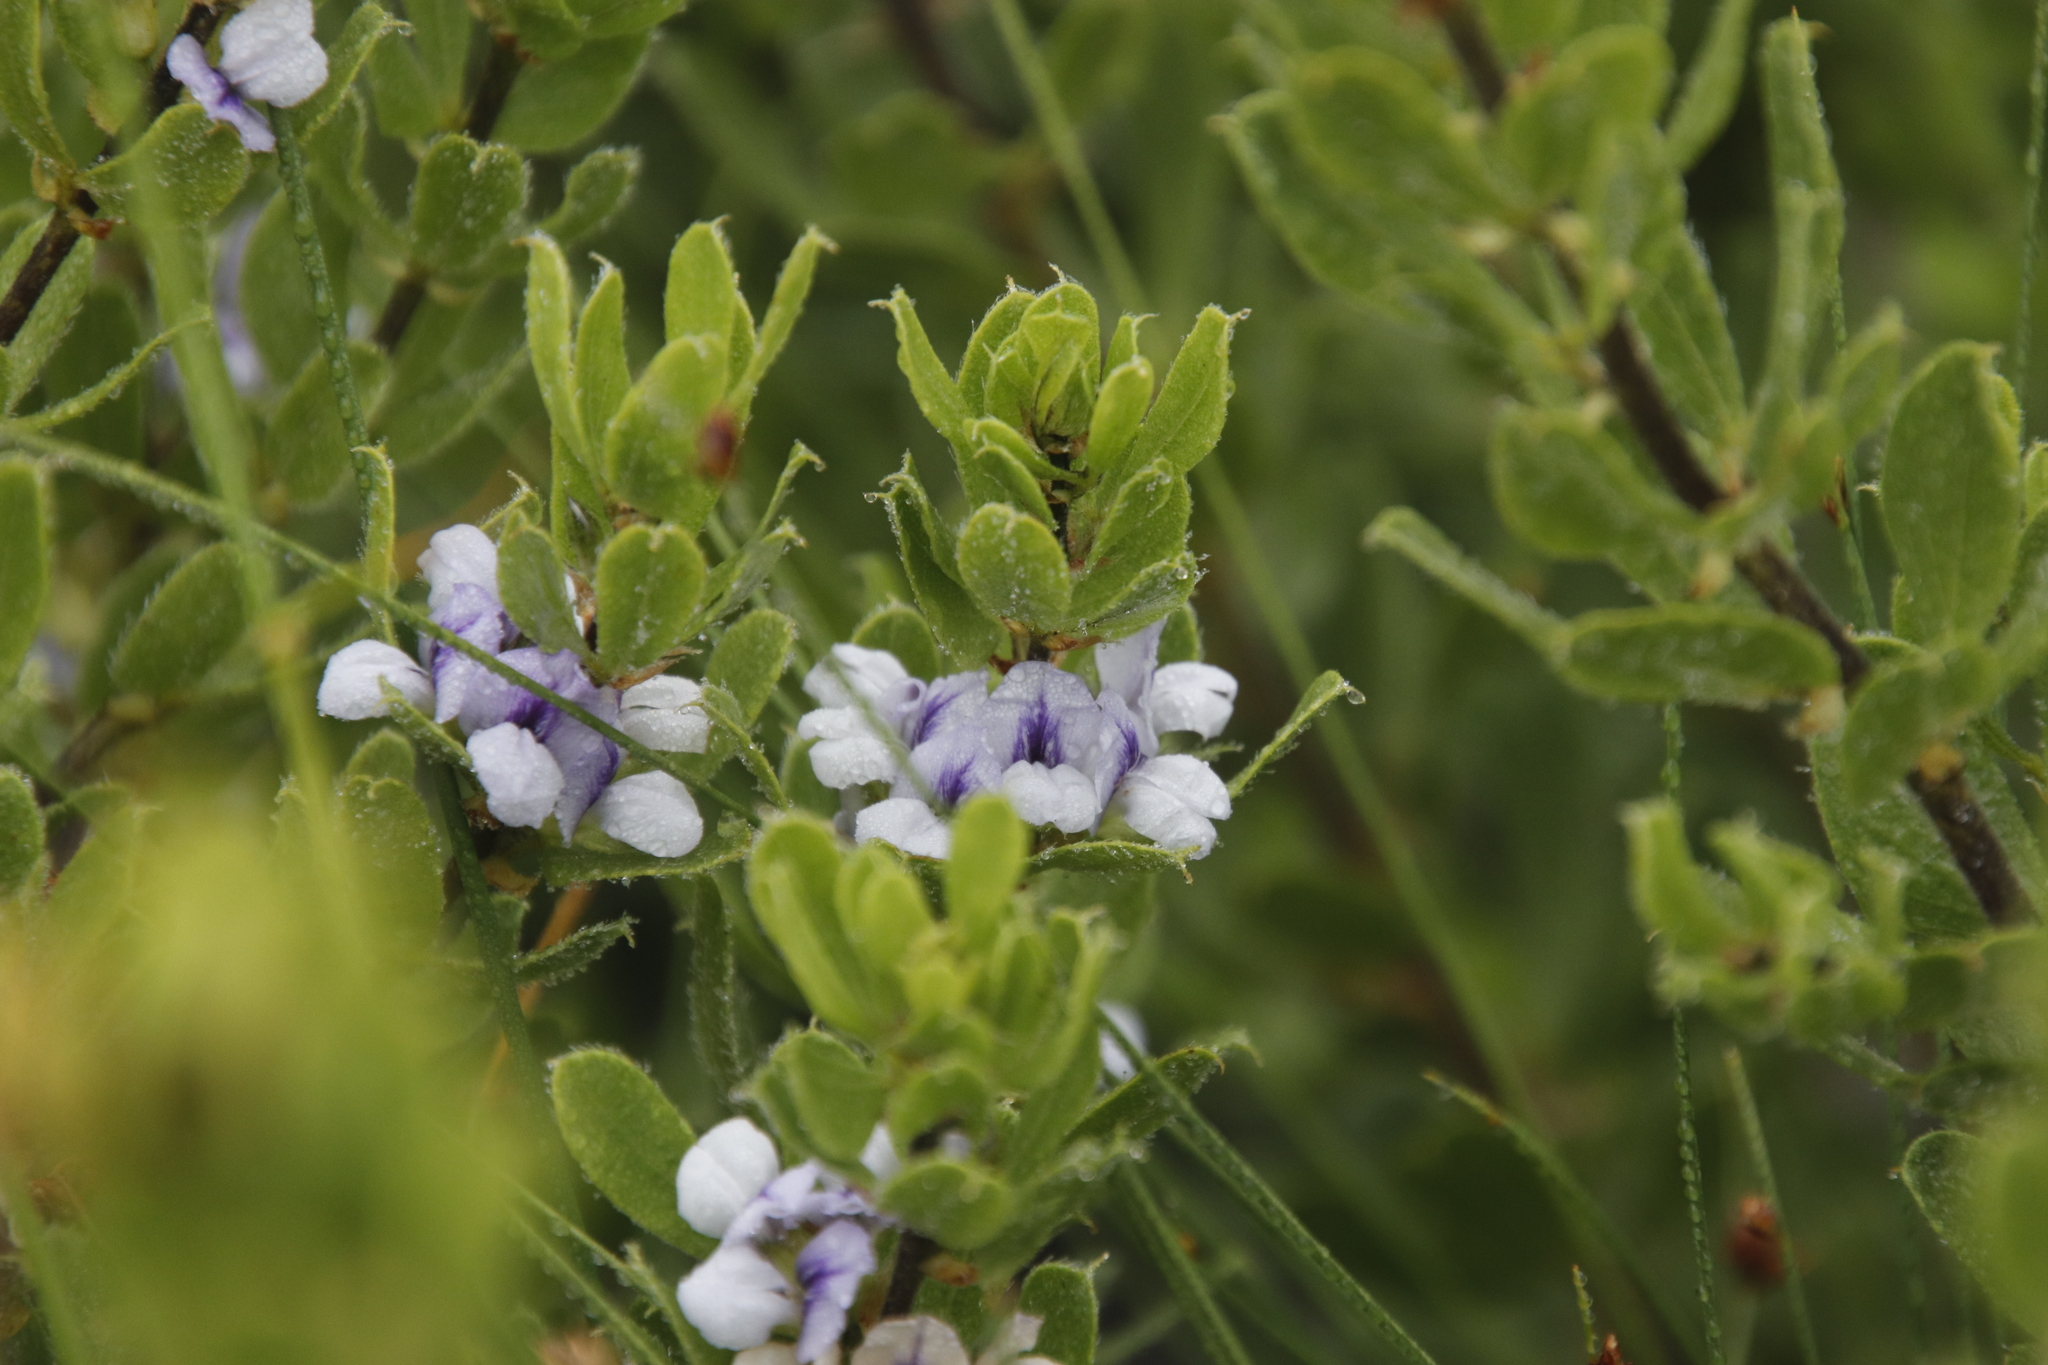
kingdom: Plantae
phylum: Tracheophyta
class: Magnoliopsida
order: Fabales
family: Fabaceae
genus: Psoralea
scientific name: Psoralea obliqua
